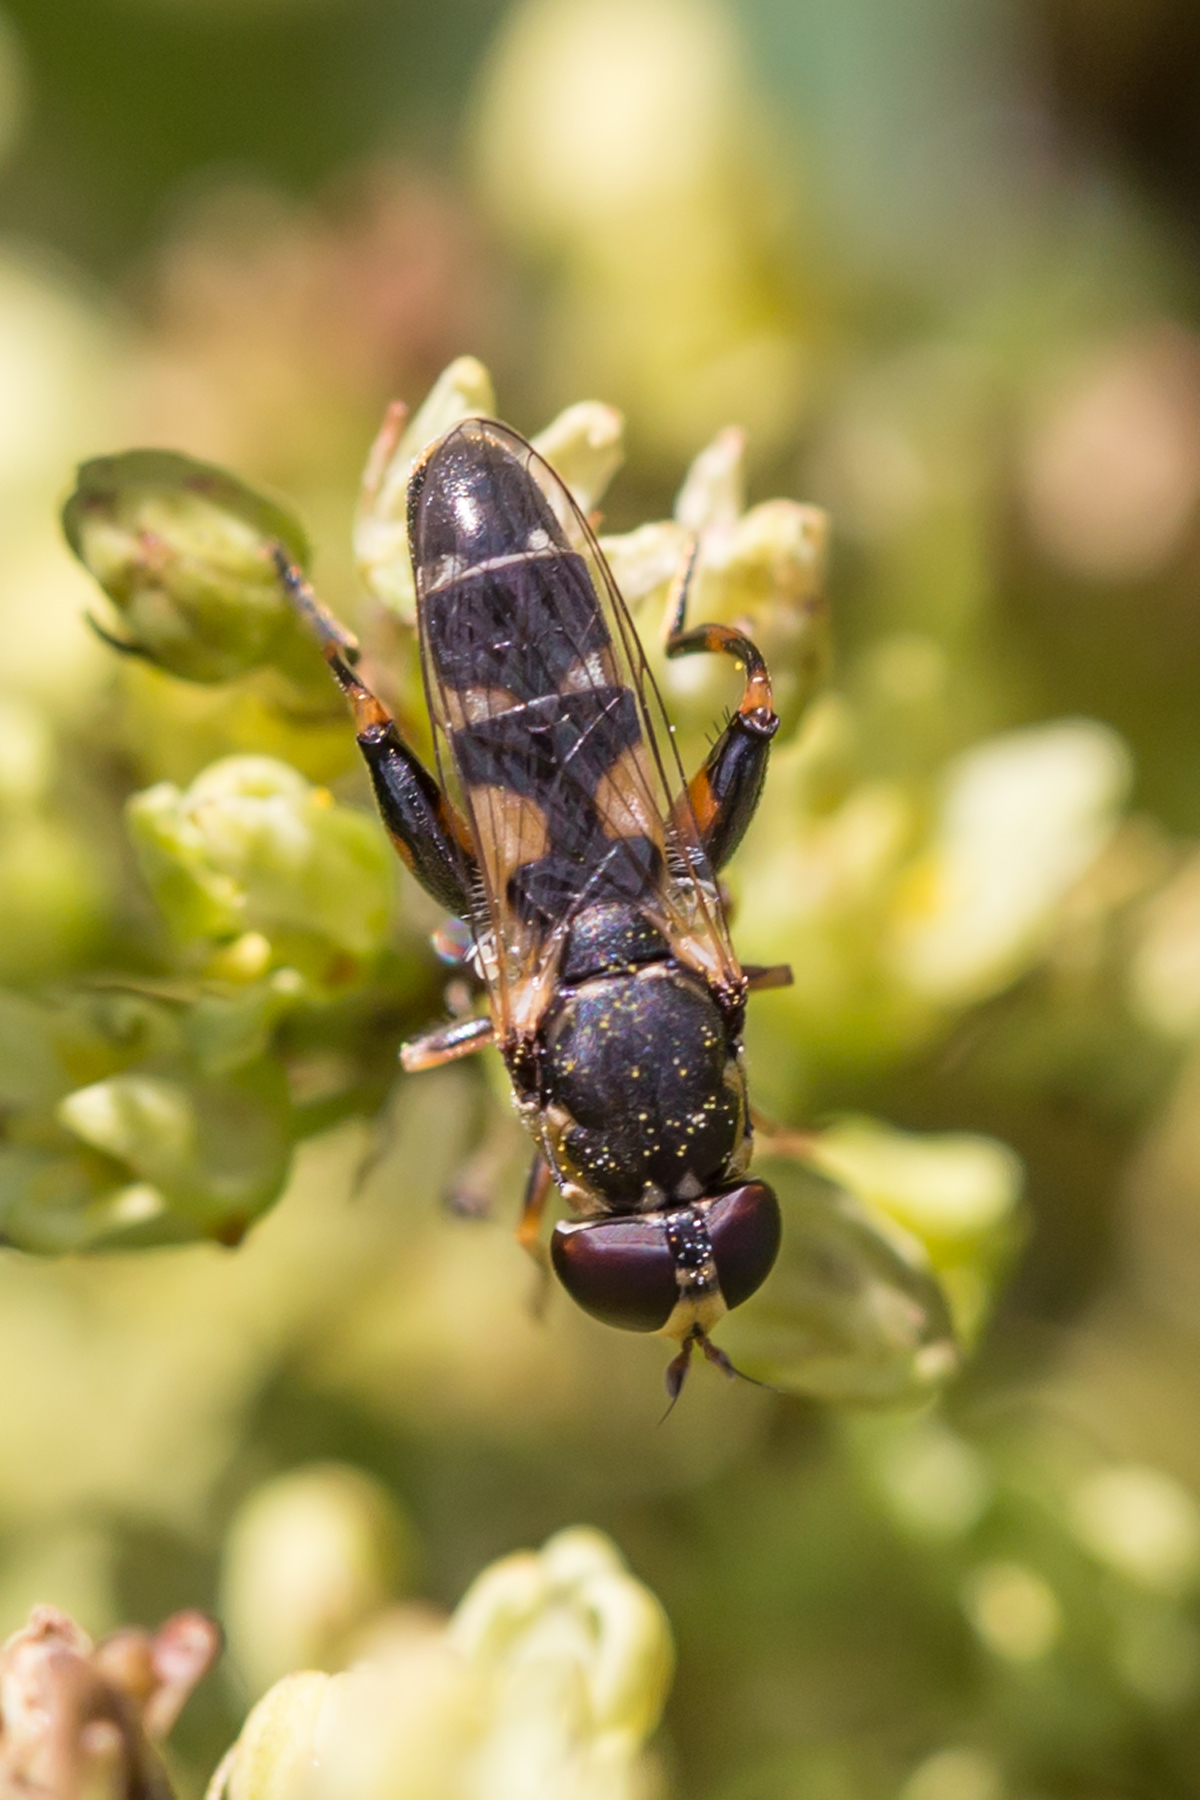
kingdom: Animalia
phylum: Arthropoda
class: Insecta
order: Diptera
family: Syrphidae
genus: Syritta
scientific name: Syritta pipiens
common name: Hover fly
